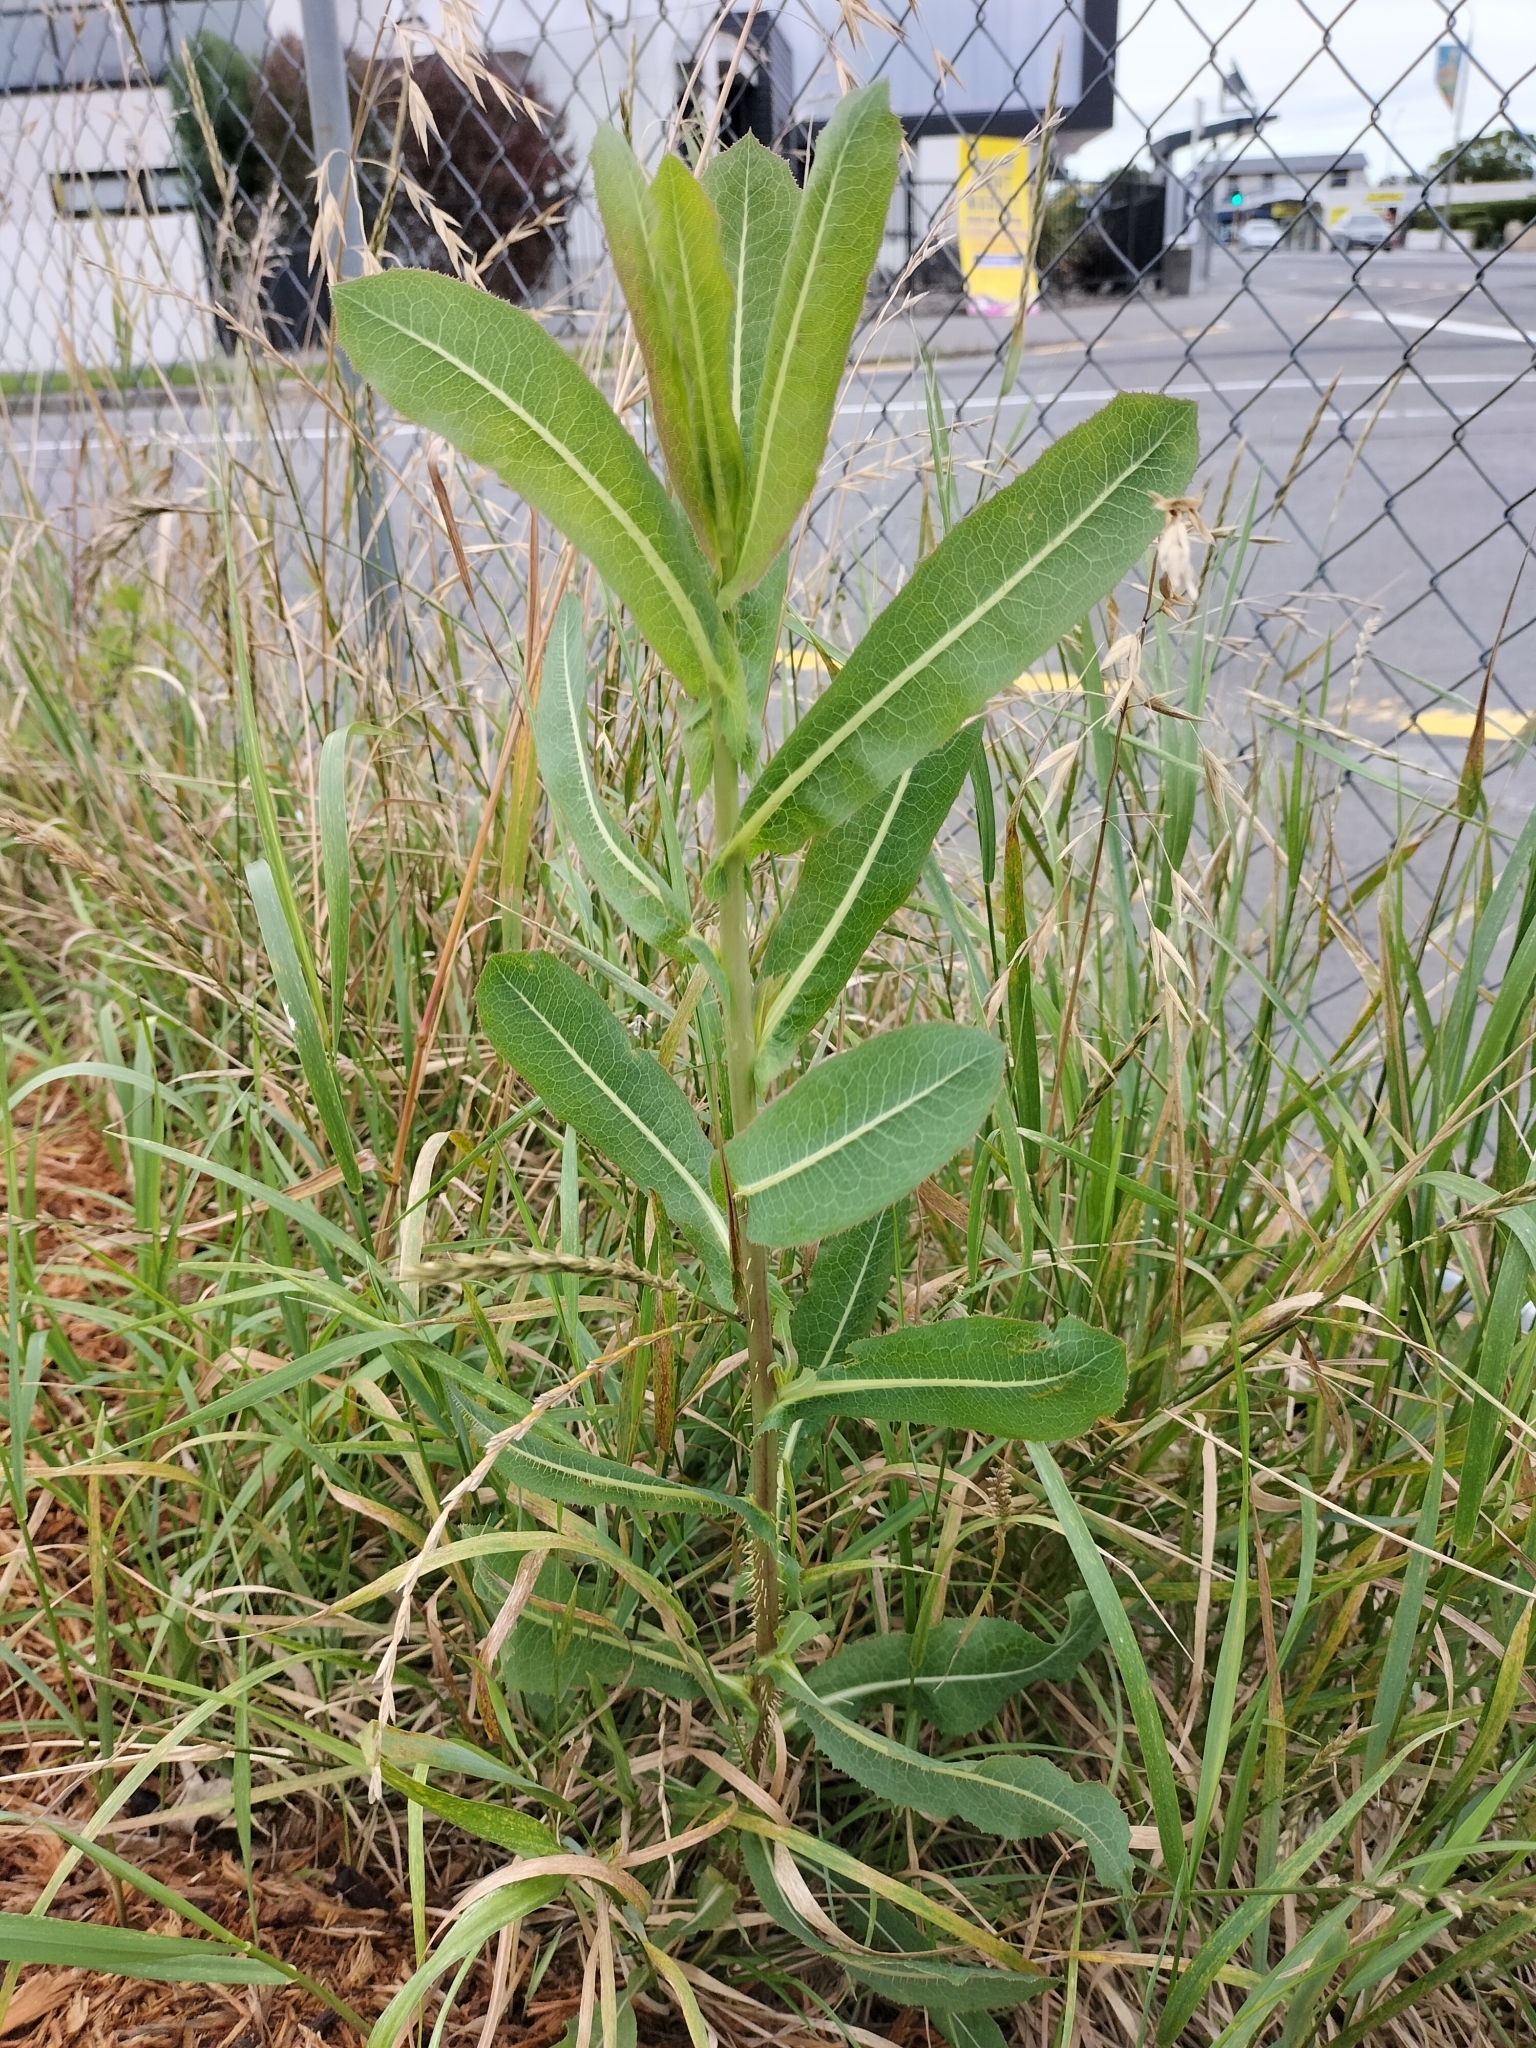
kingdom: Plantae
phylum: Tracheophyta
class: Magnoliopsida
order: Asterales
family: Asteraceae
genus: Lactuca
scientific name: Lactuca serriola
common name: Prickly lettuce
